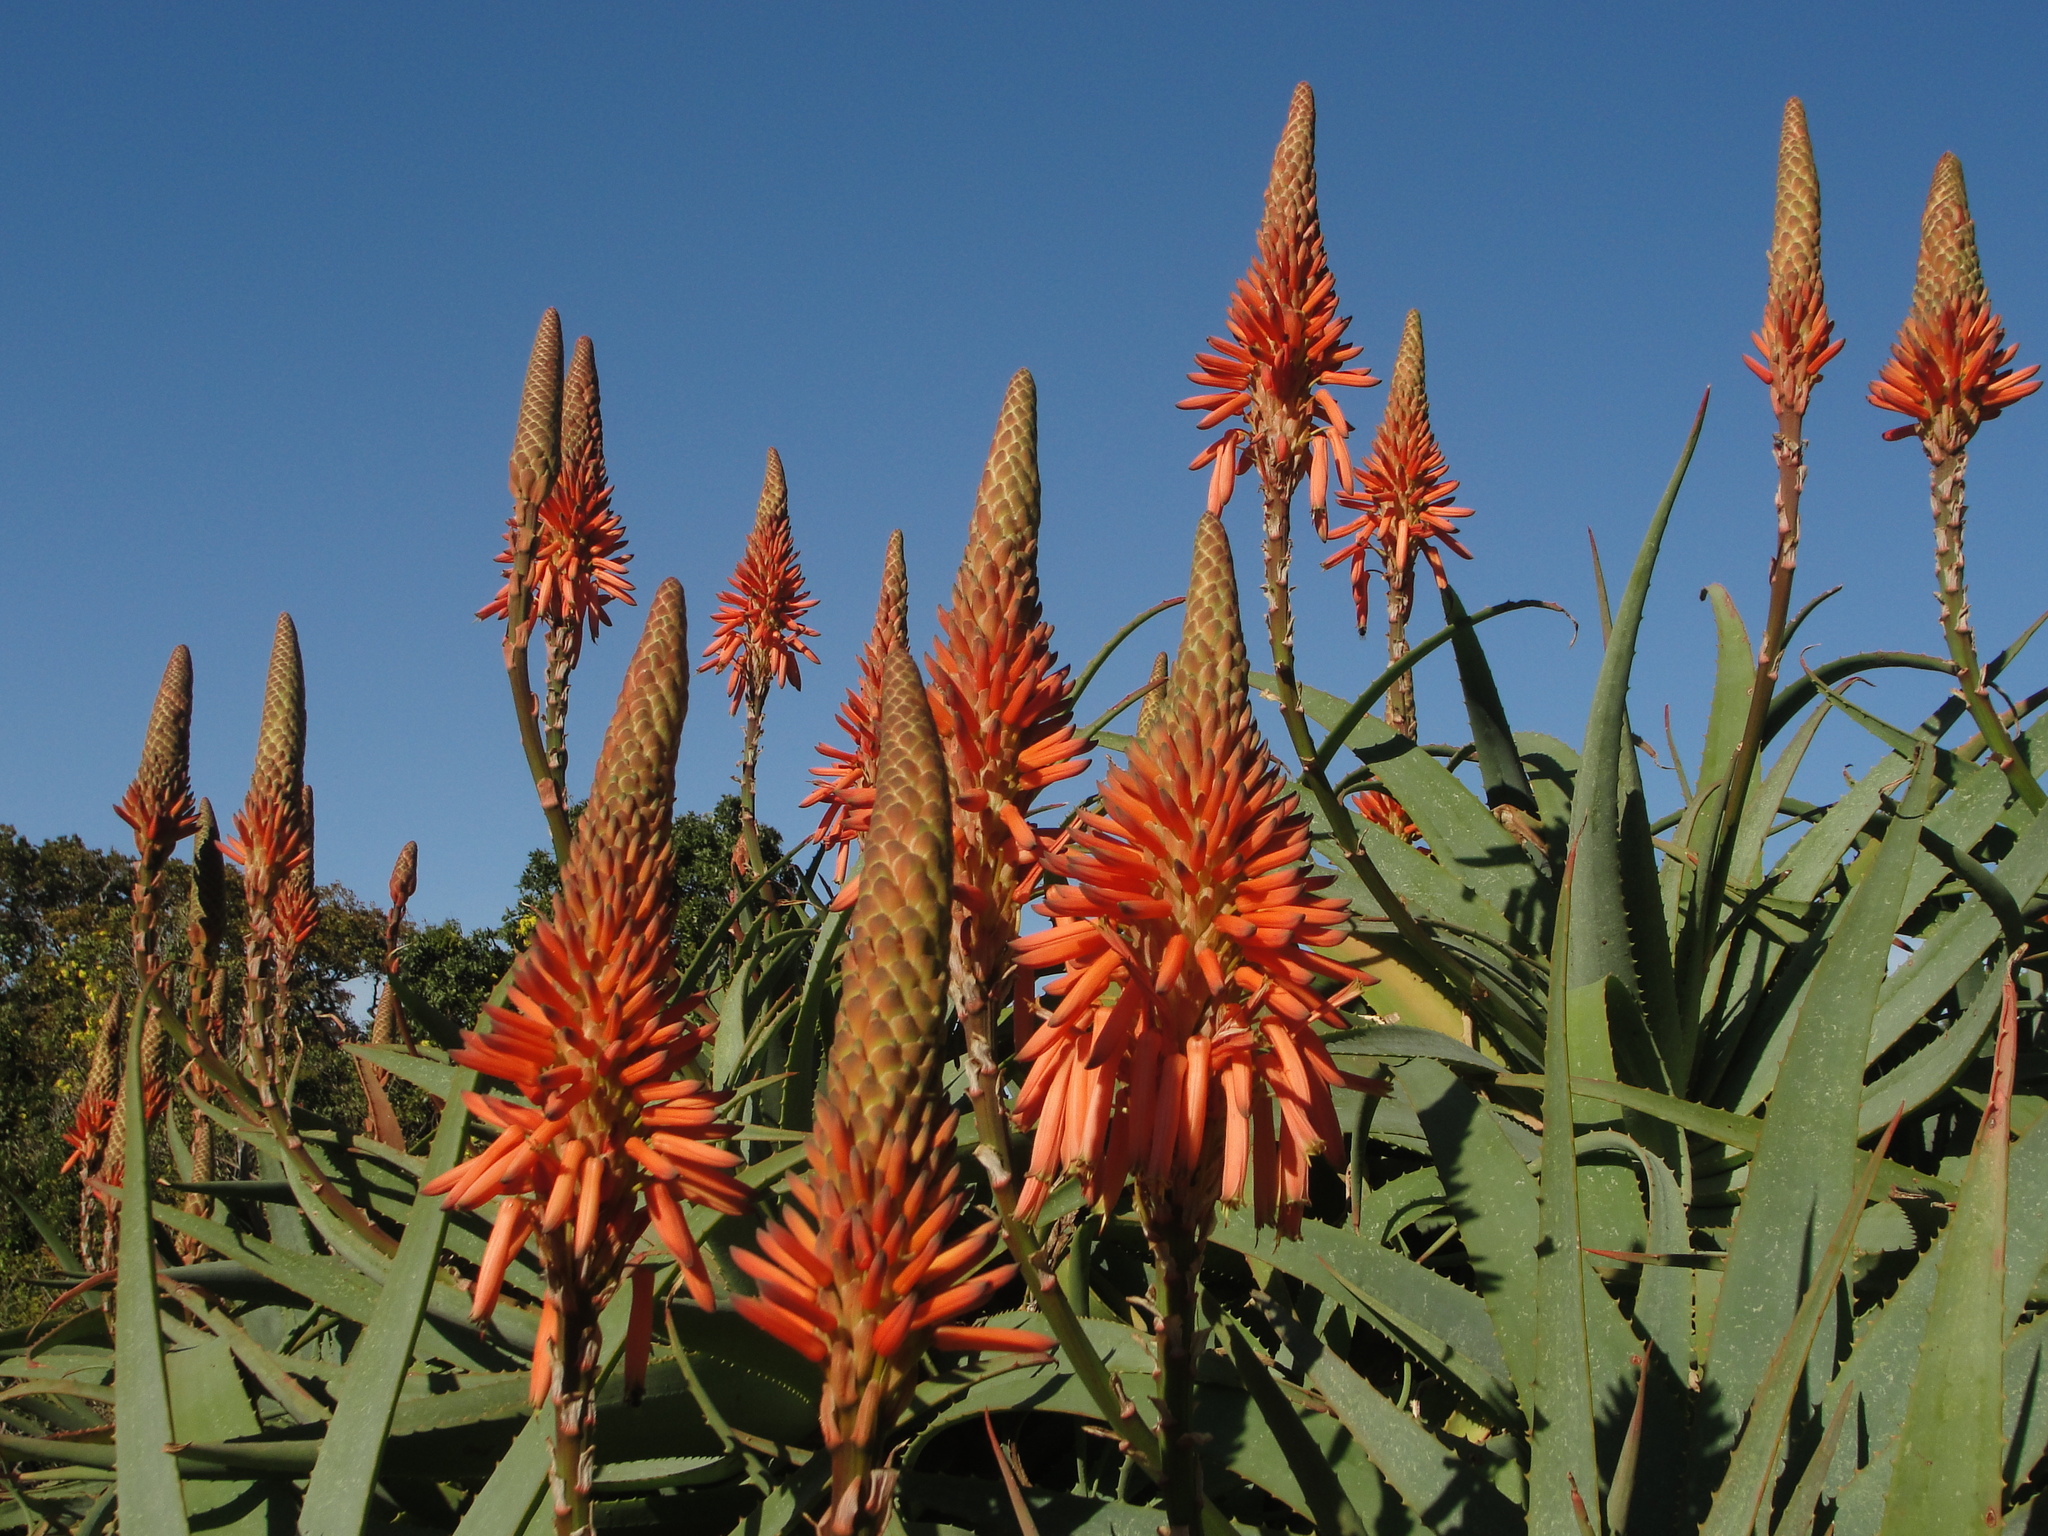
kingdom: Plantae
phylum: Tracheophyta
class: Liliopsida
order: Asparagales
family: Asphodelaceae
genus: Aloe
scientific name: Aloe arborescens
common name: Candelabra aloe
